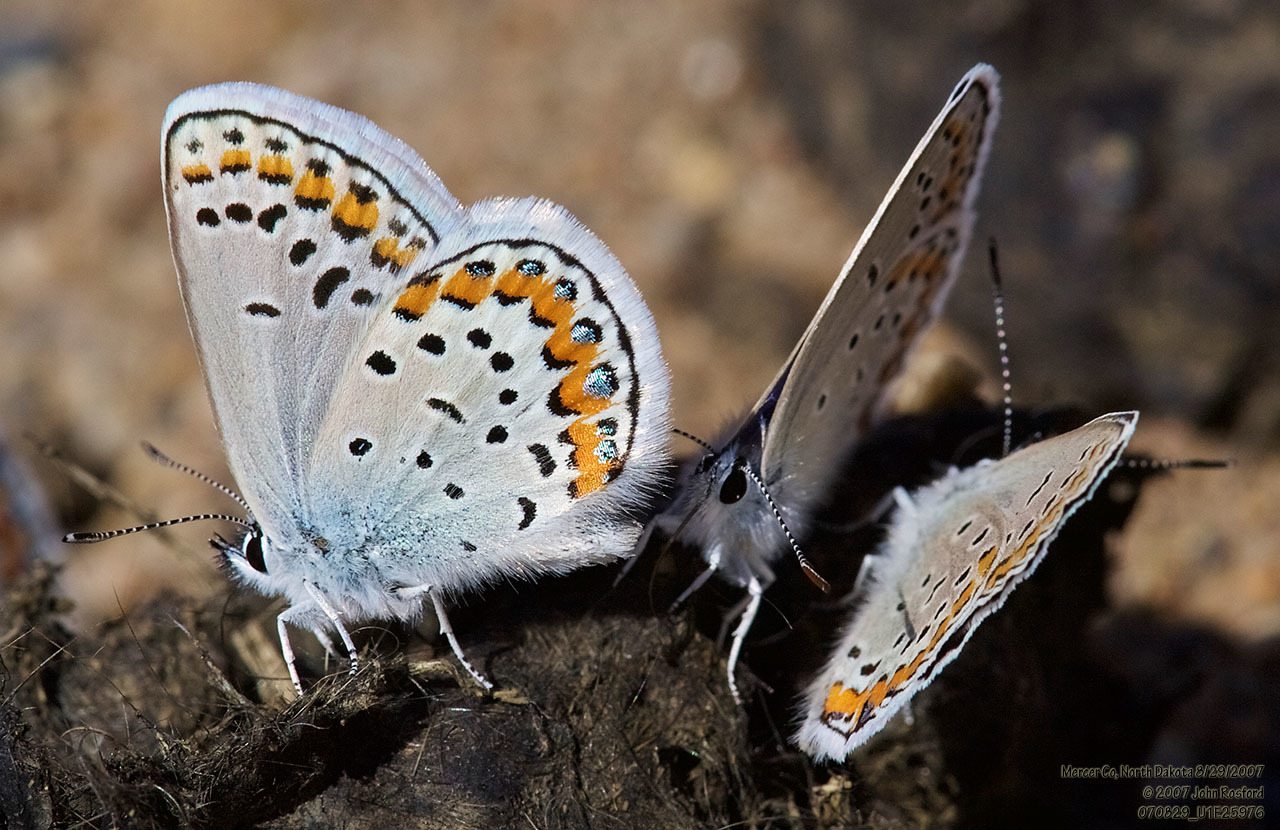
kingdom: Animalia
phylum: Arthropoda
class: Insecta
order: Lepidoptera
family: Lycaenidae
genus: Lycaeides
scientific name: Lycaeides melissa
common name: Melissa blue
